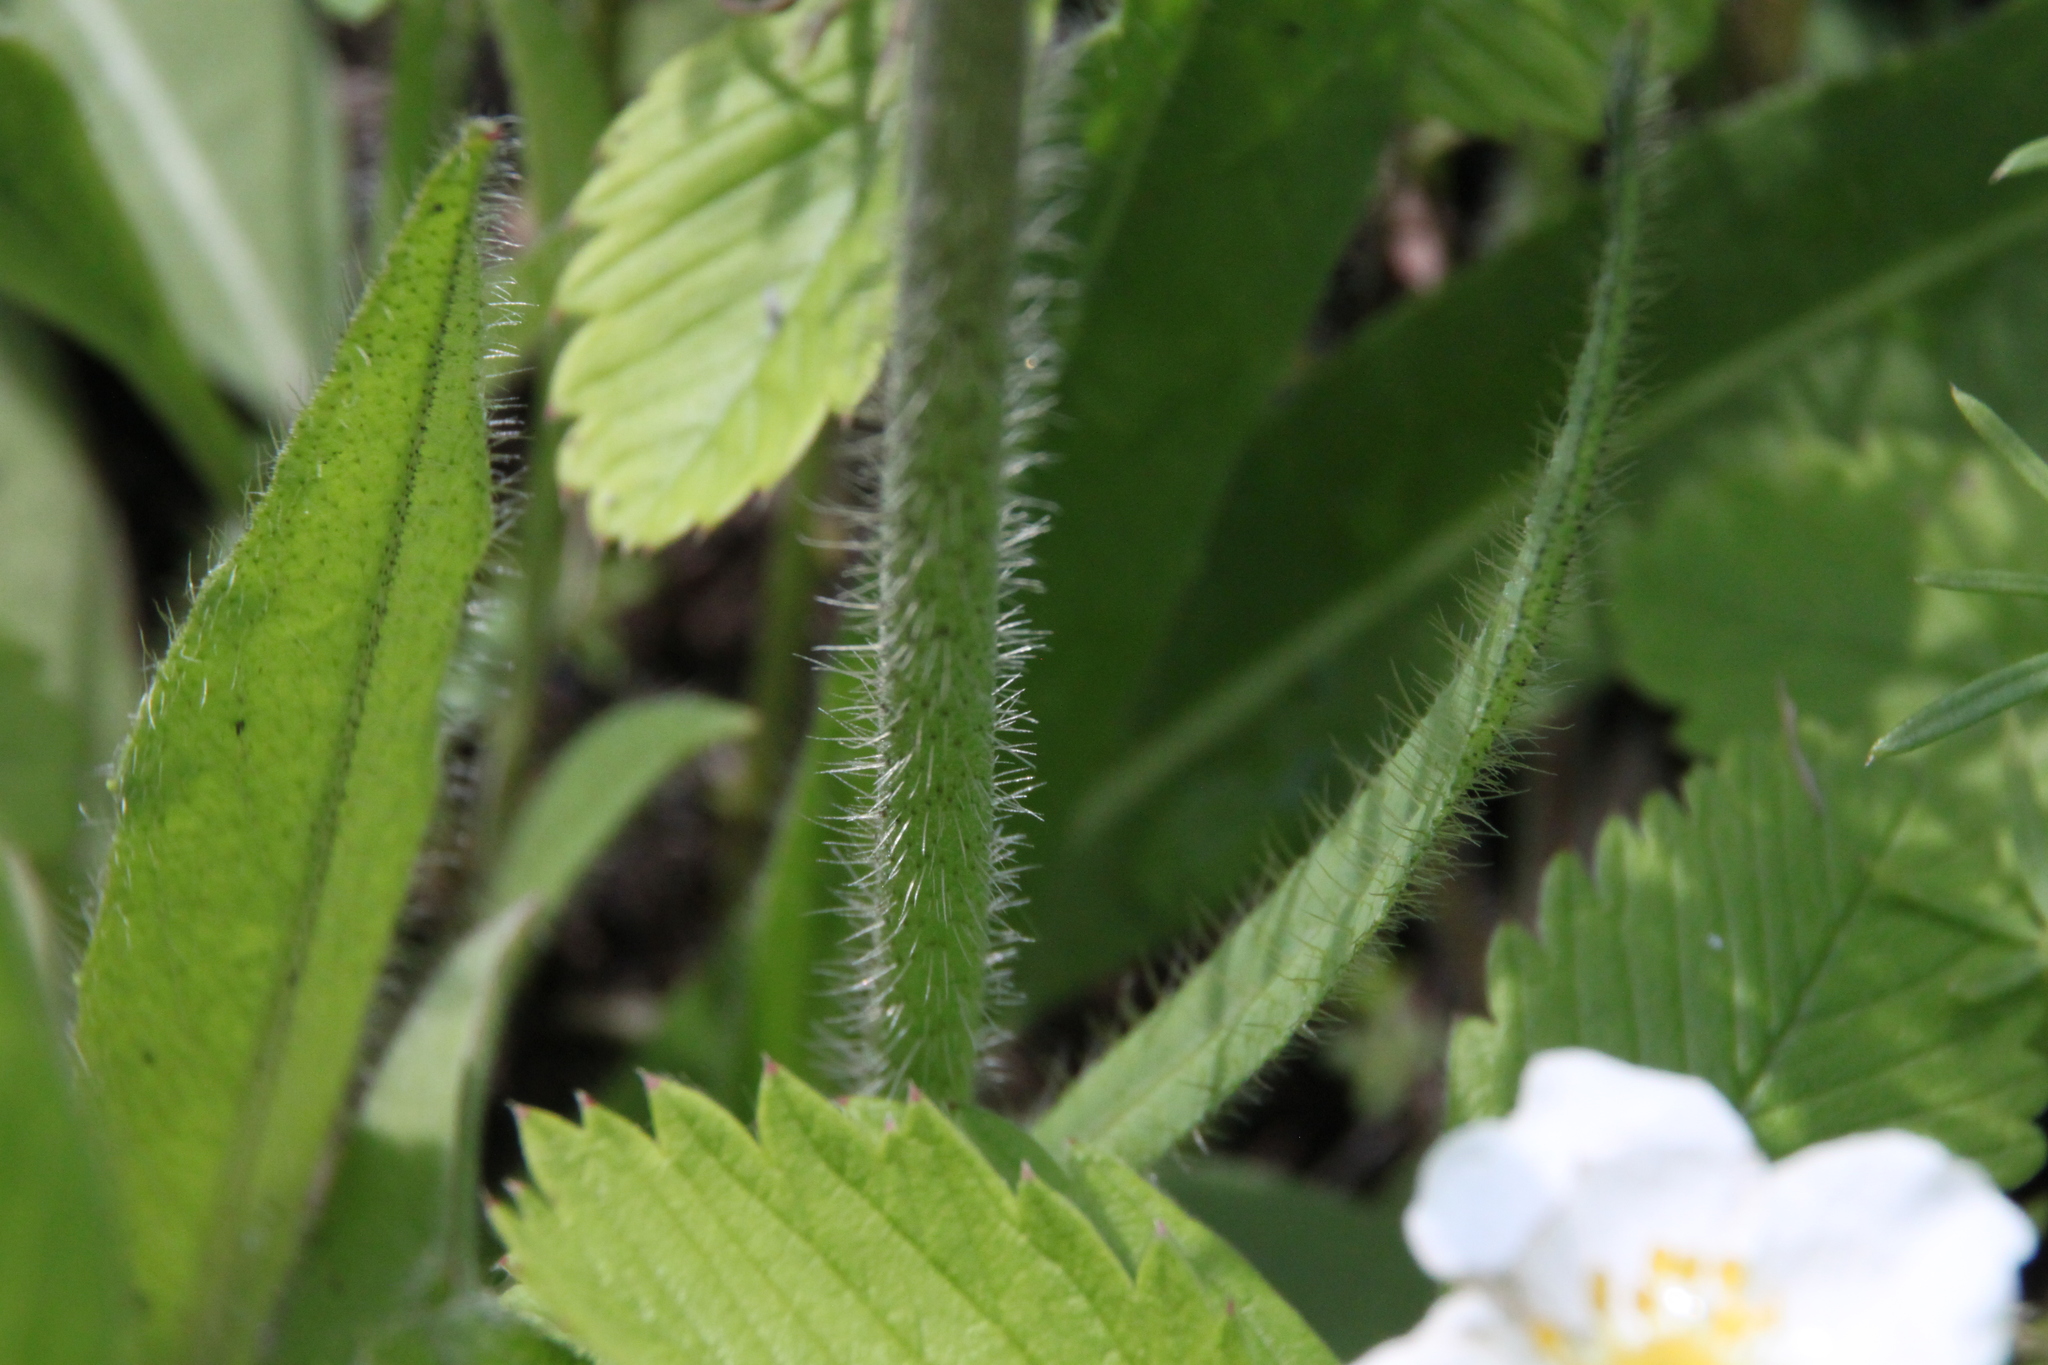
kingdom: Plantae
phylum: Tracheophyta
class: Magnoliopsida
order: Asterales
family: Asteraceae
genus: Pilosella
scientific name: Pilosella
